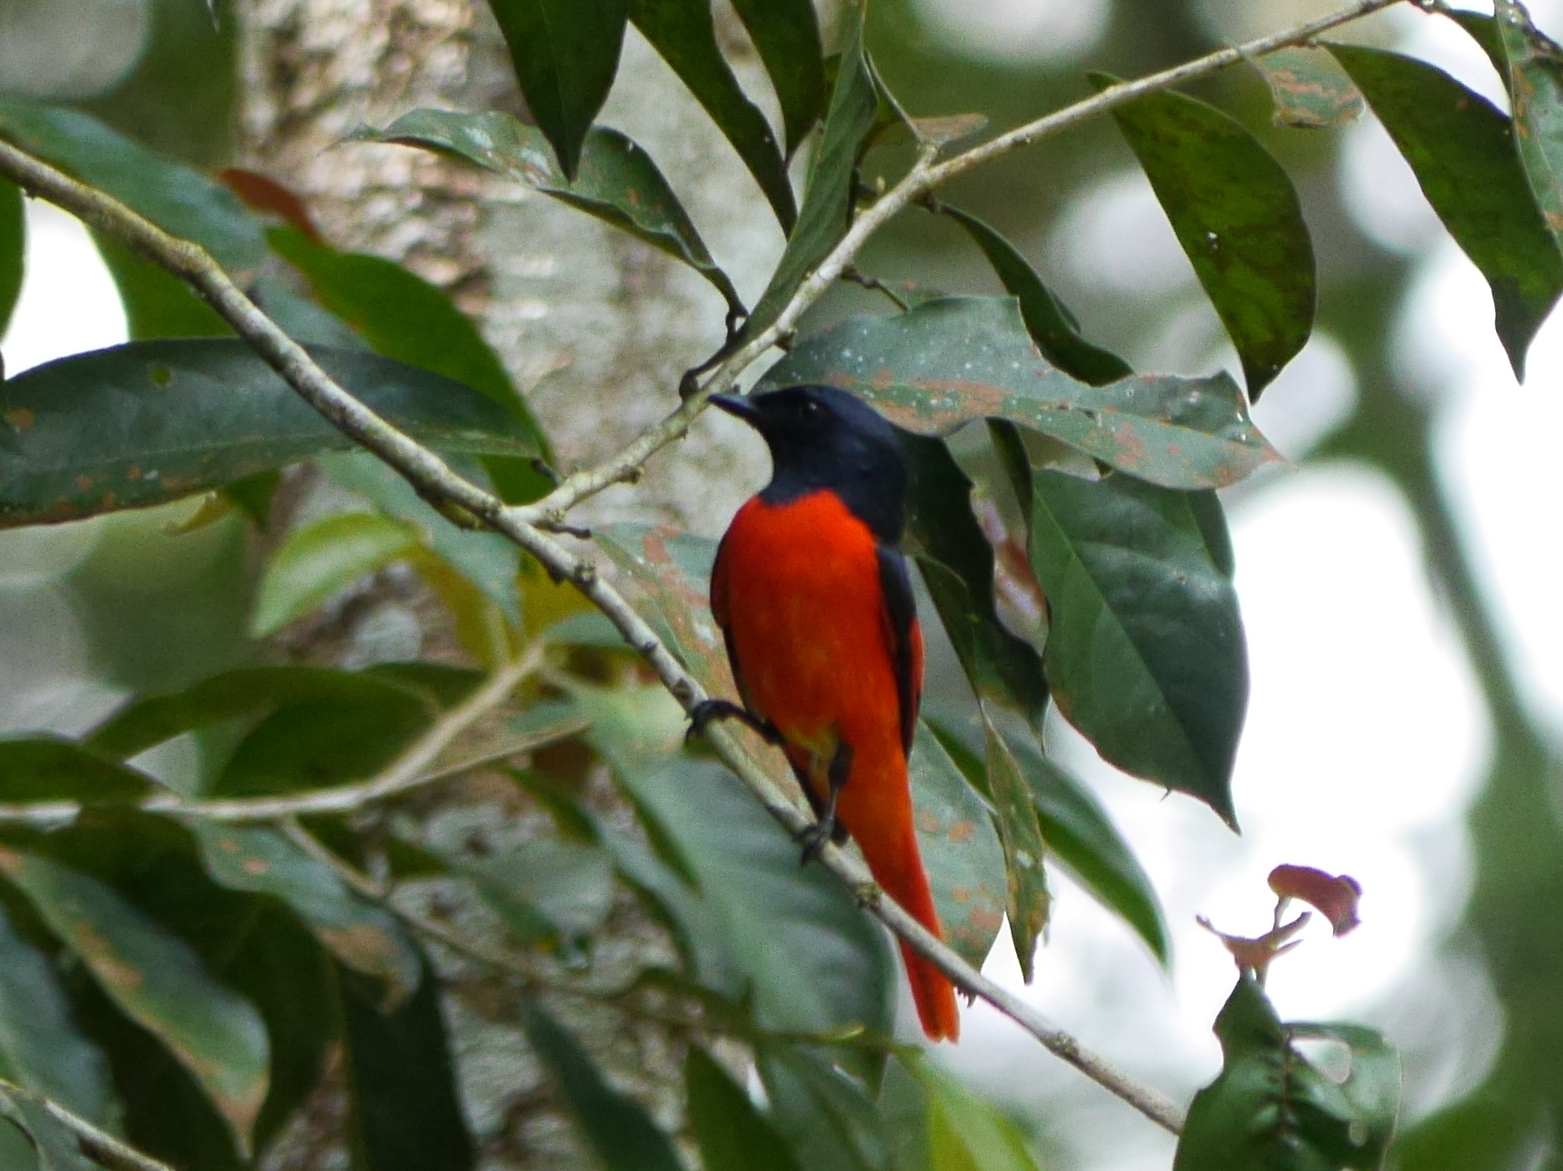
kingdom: Animalia
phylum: Chordata
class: Aves
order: Passeriformes
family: Campephagidae
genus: Pericrocotus
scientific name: Pericrocotus speciosus
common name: Scarlet minivet
